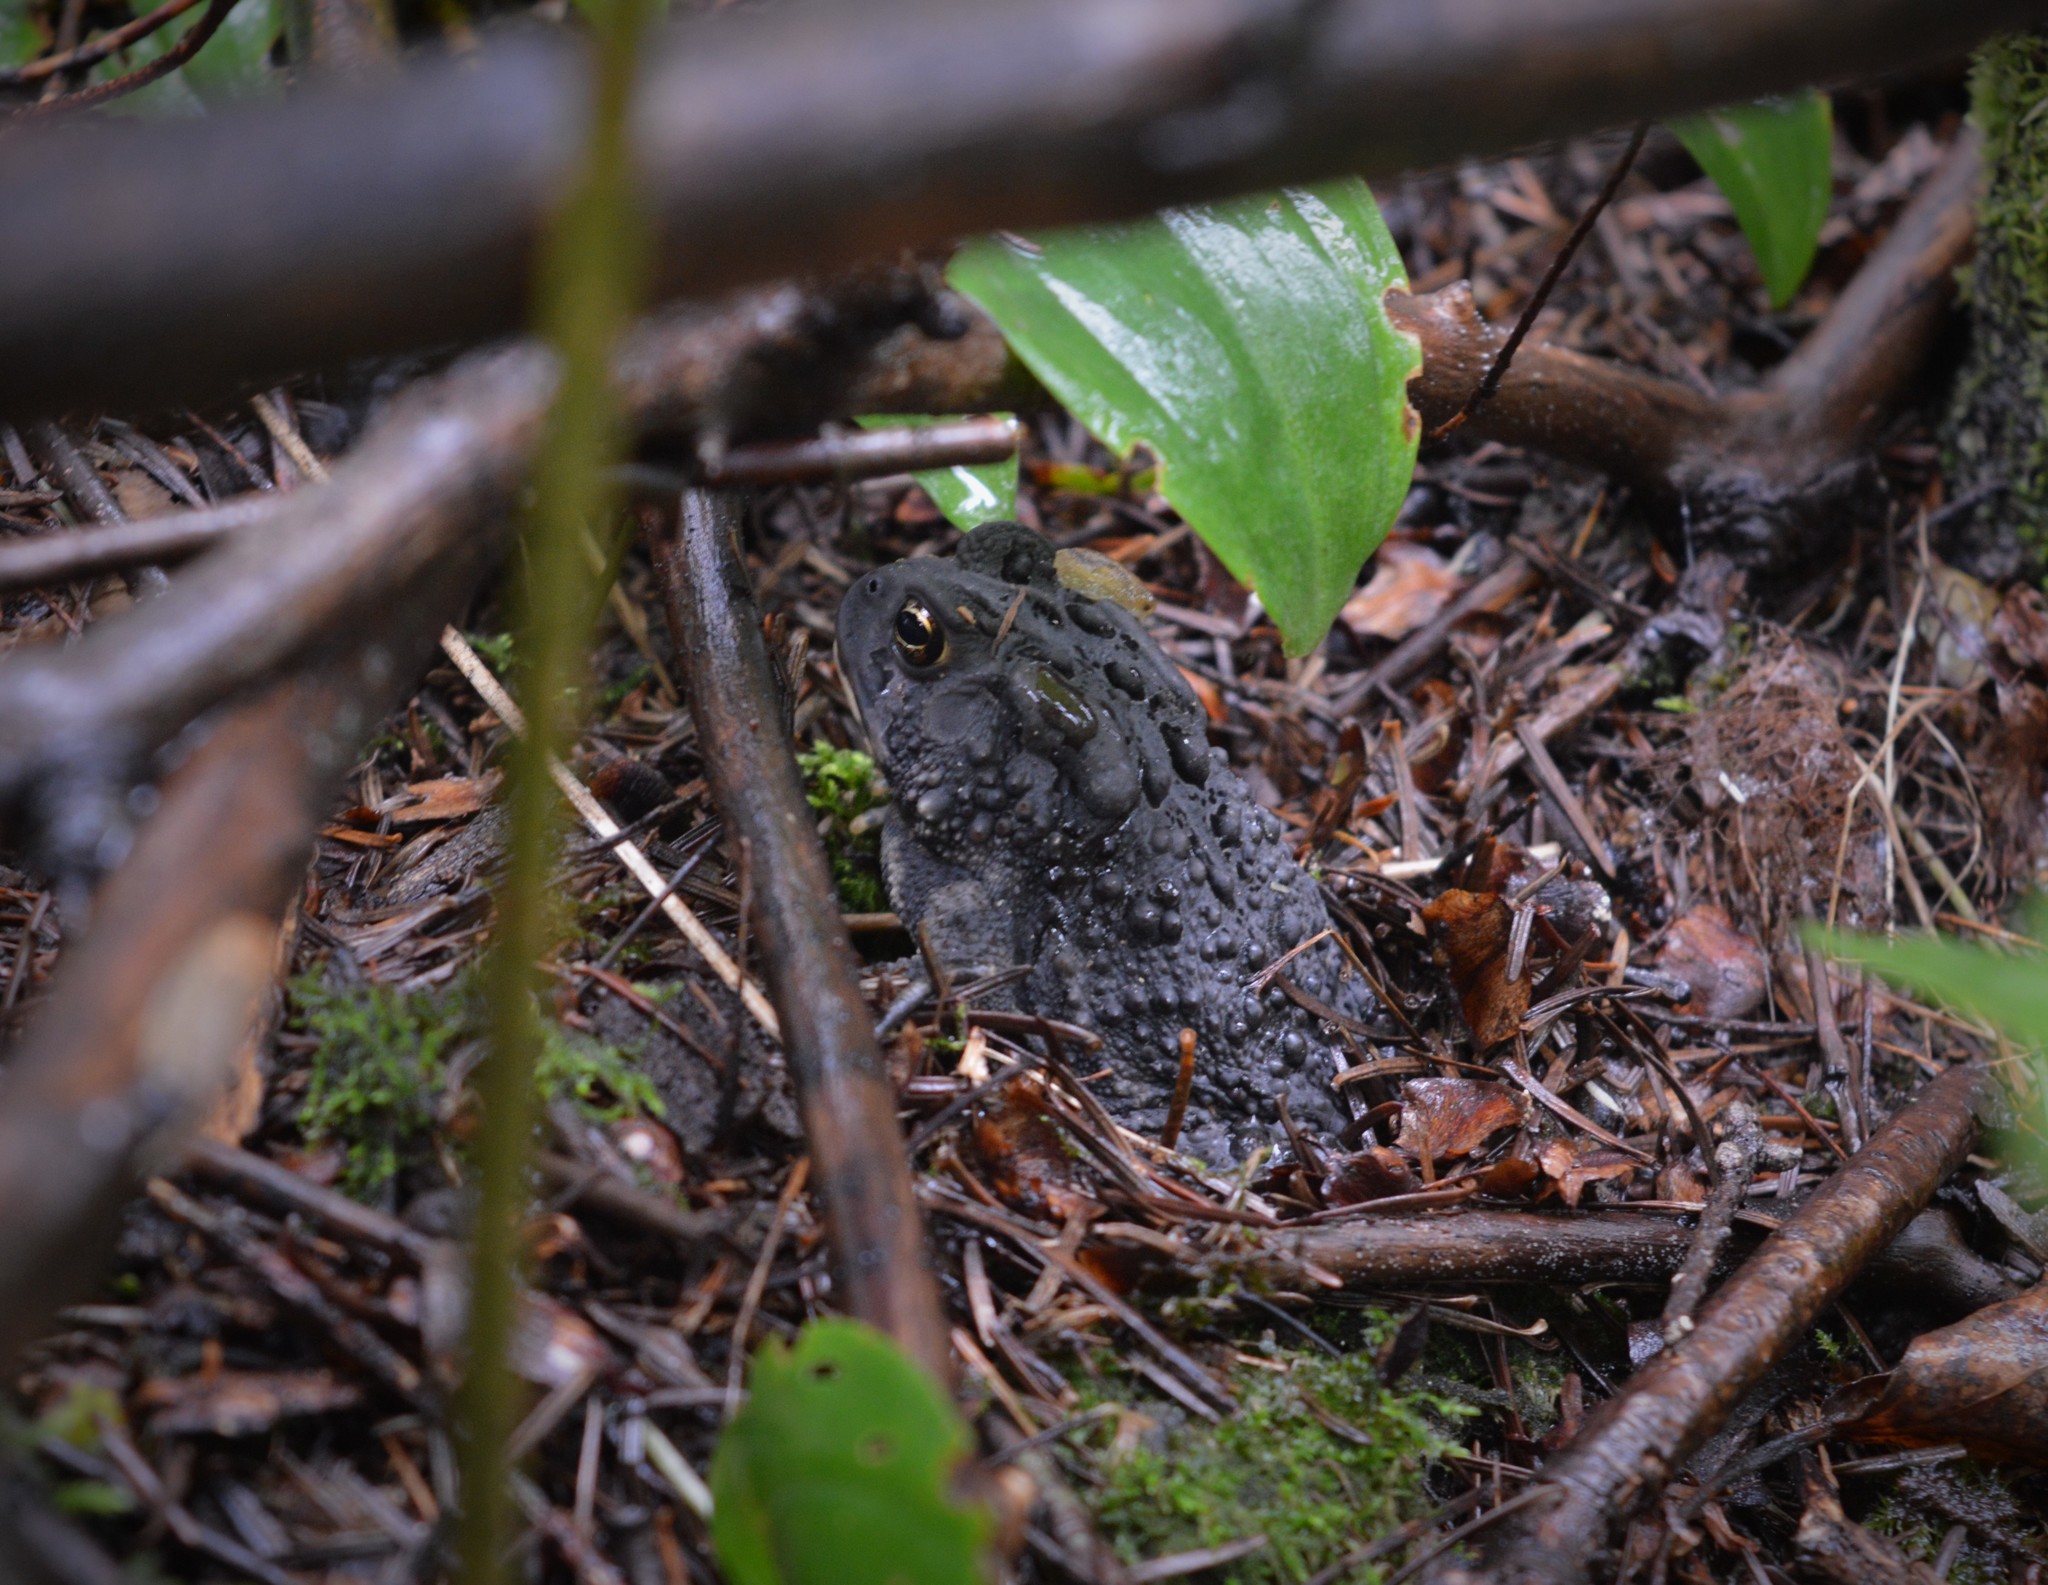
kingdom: Animalia
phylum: Chordata
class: Amphibia
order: Anura
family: Bufonidae
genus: Anaxyrus
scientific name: Anaxyrus americanus
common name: American toad
